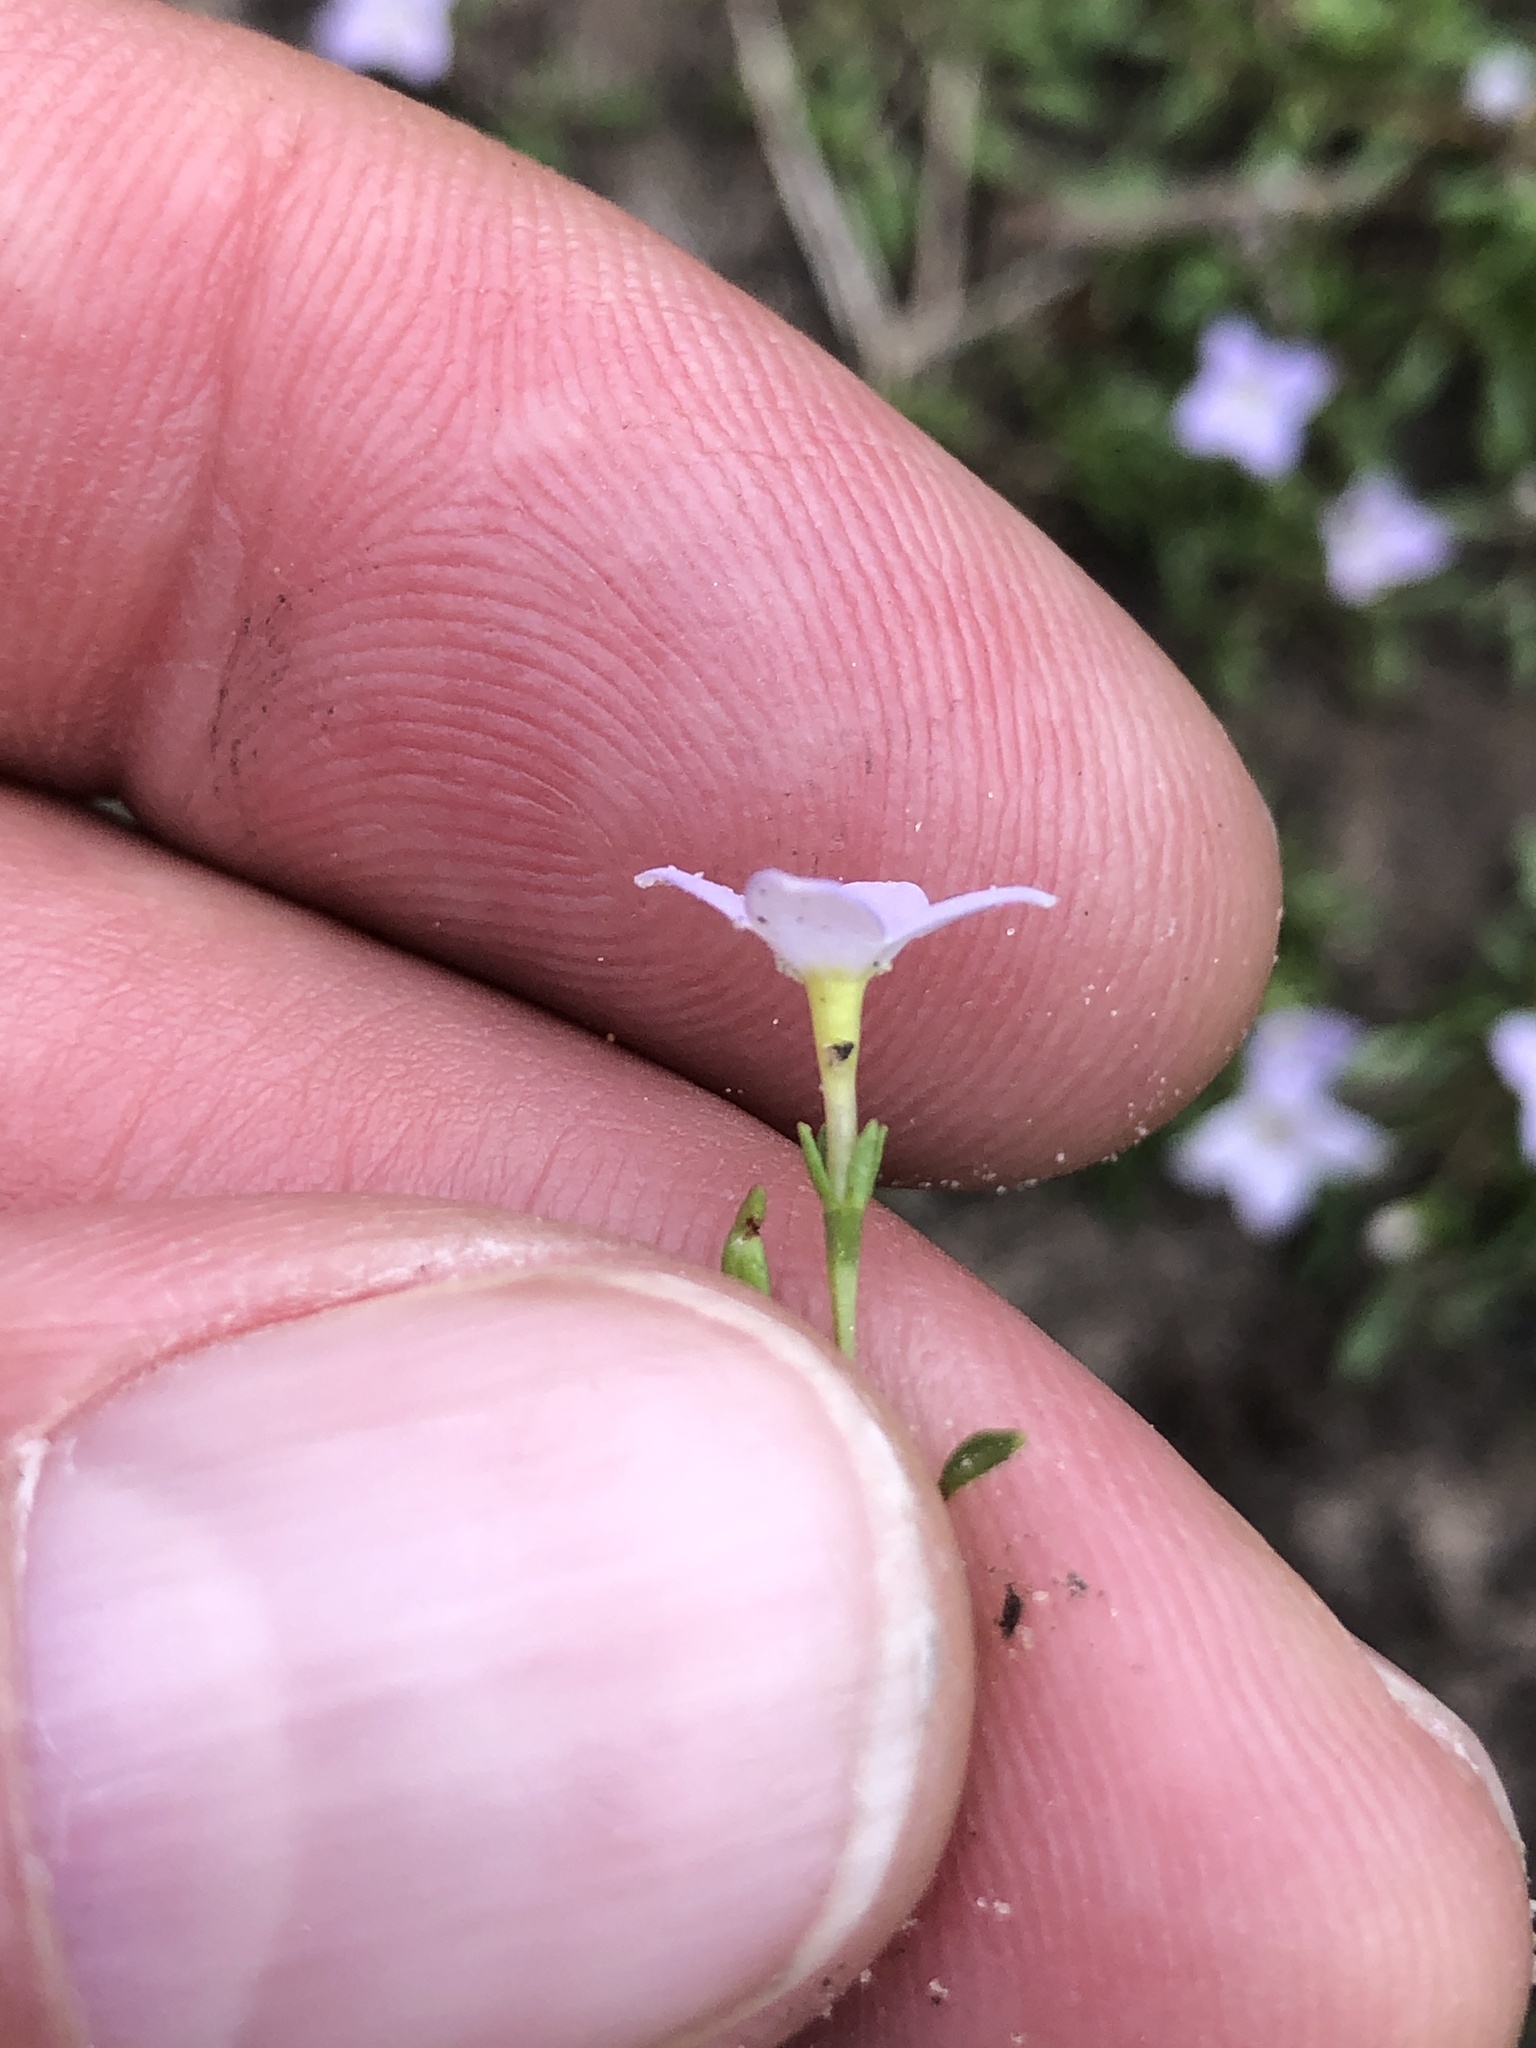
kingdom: Plantae
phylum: Tracheophyta
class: Magnoliopsida
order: Gentianales
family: Rubiaceae
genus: Houstonia
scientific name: Houstonia rosea
